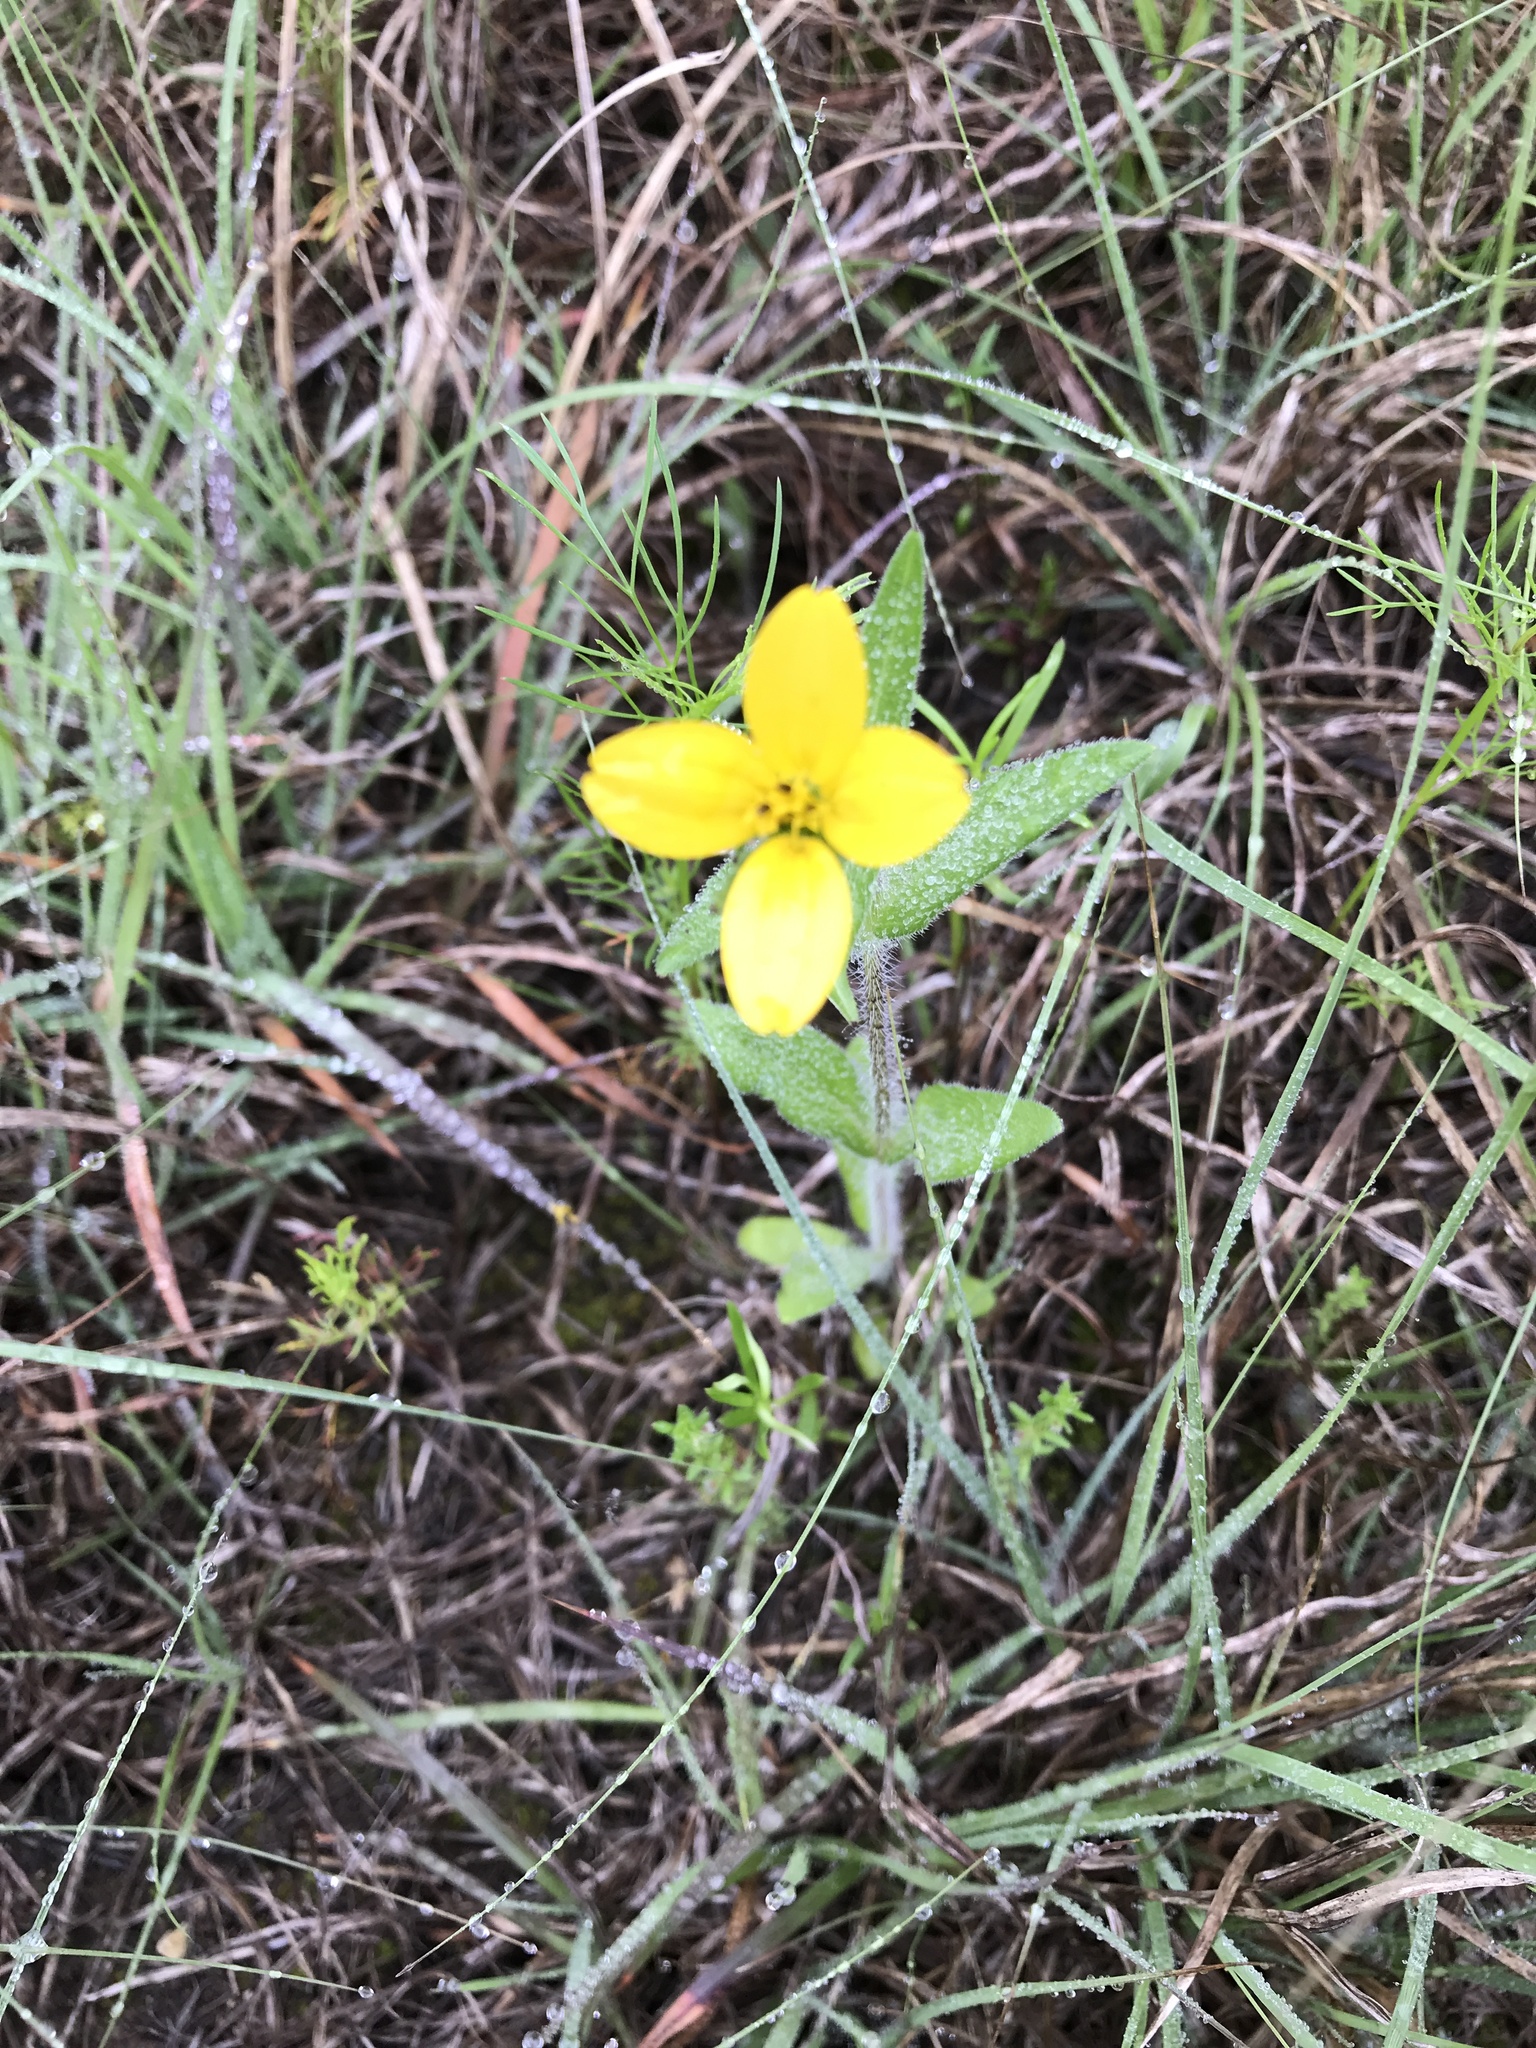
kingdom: Plantae
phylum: Tracheophyta
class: Magnoliopsida
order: Asterales
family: Asteraceae
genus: Lindheimera
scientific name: Lindheimera texana
